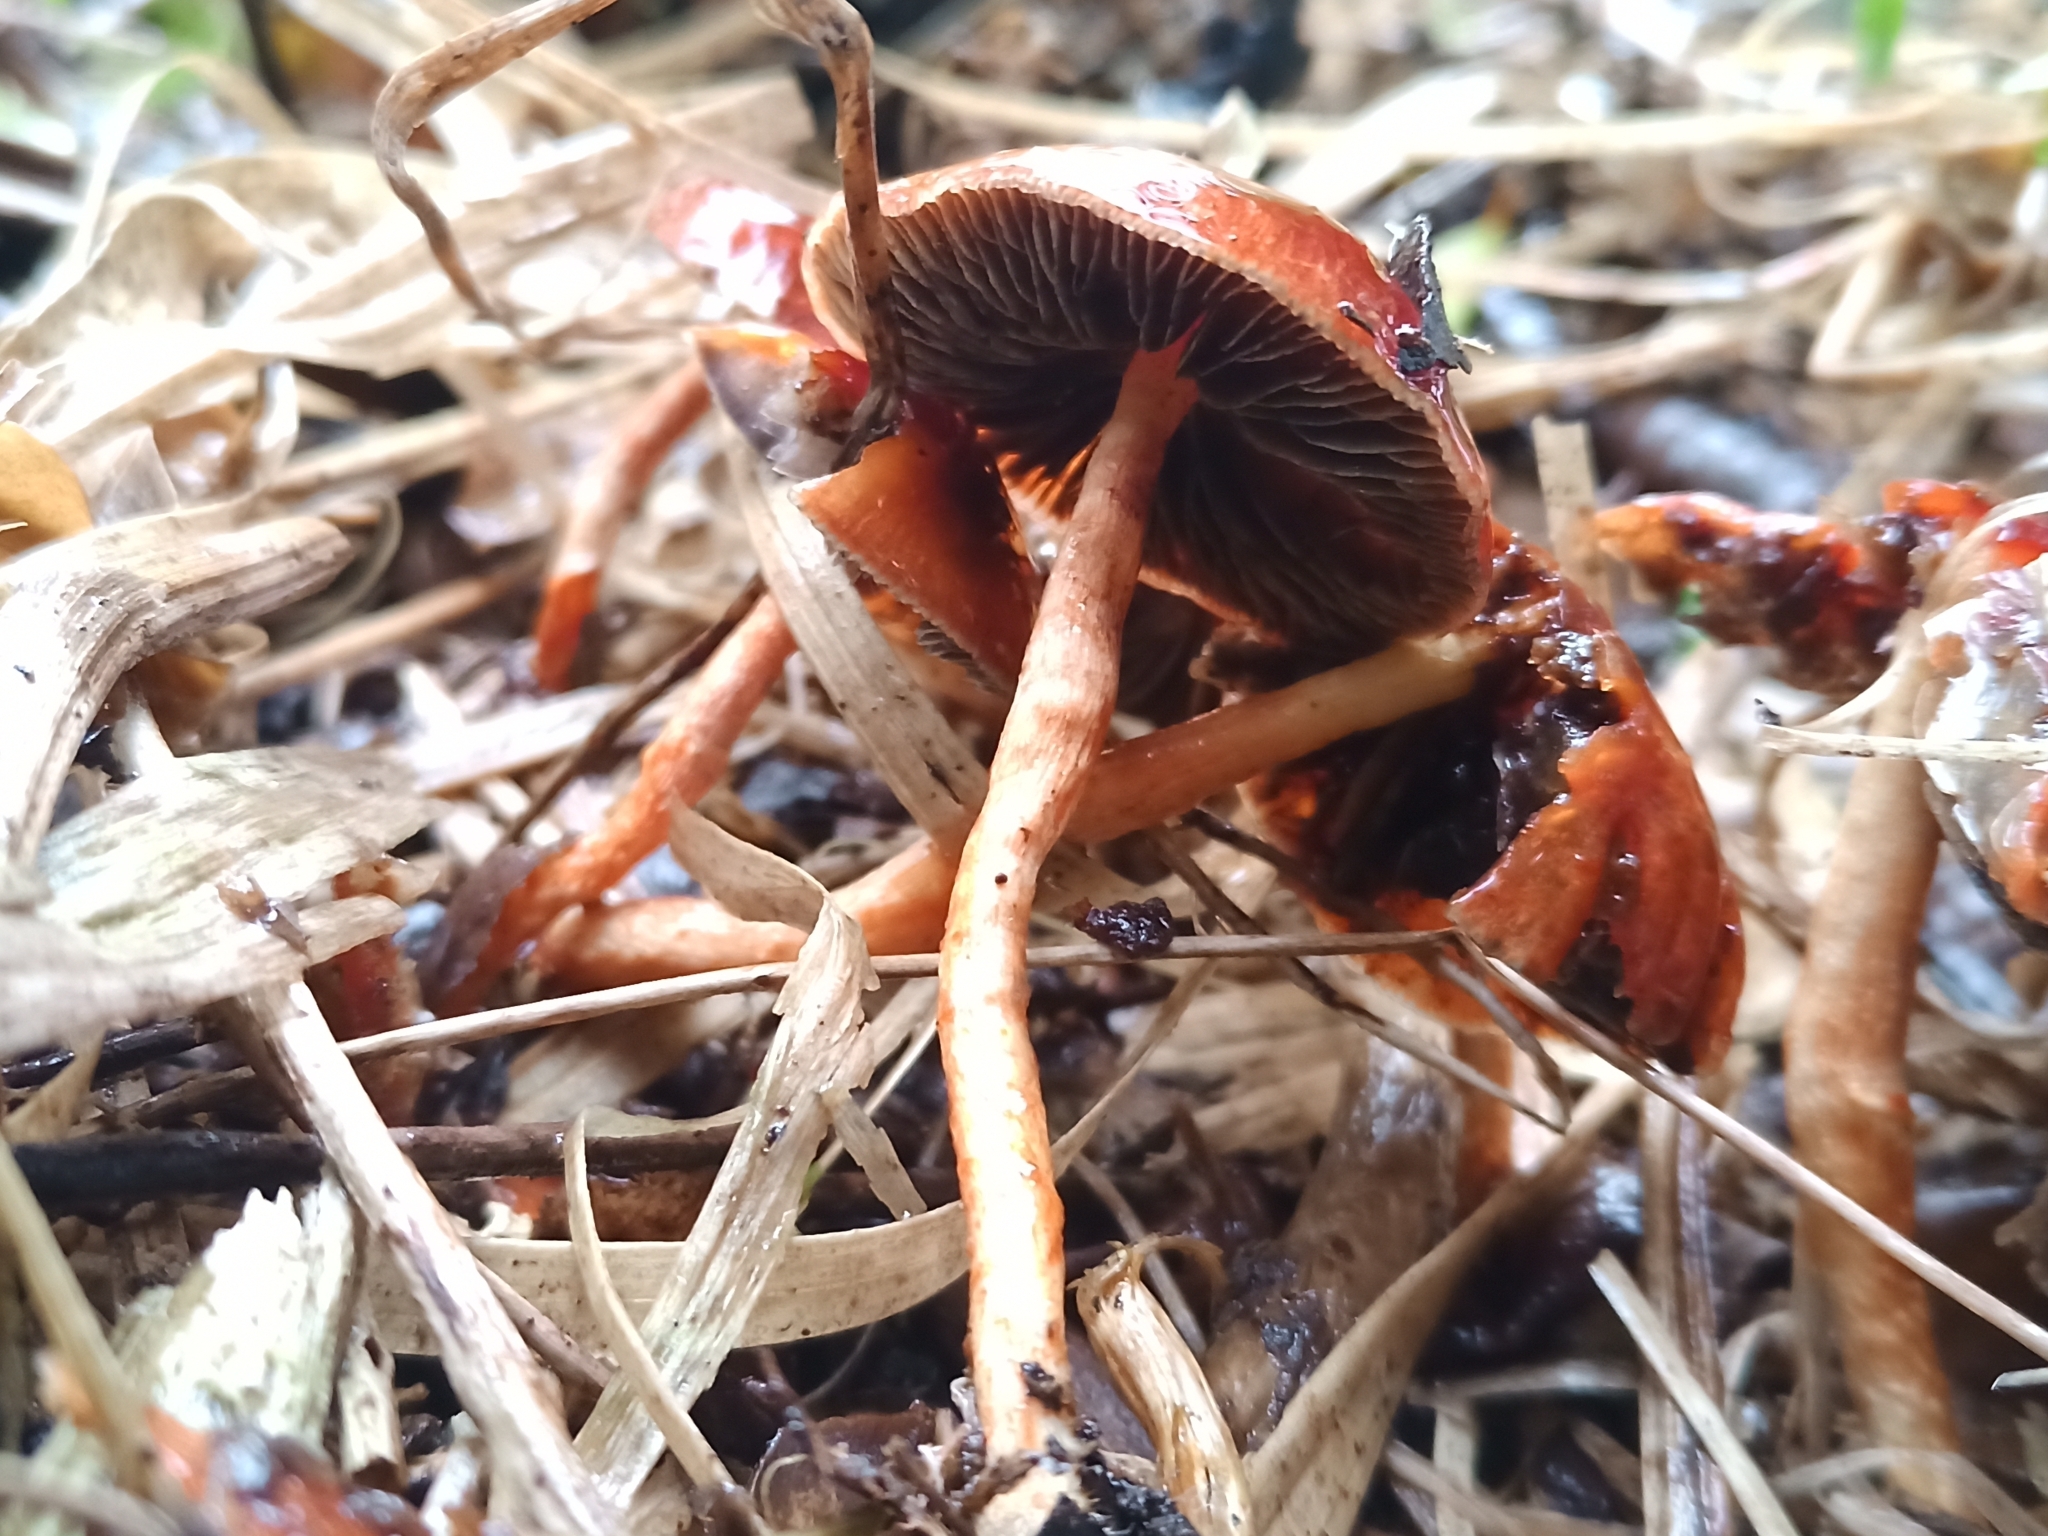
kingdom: Fungi
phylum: Basidiomycota
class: Agaricomycetes
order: Agaricales
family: Strophariaceae
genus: Leratiomyces
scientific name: Leratiomyces ceres
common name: Redlead roundhead
